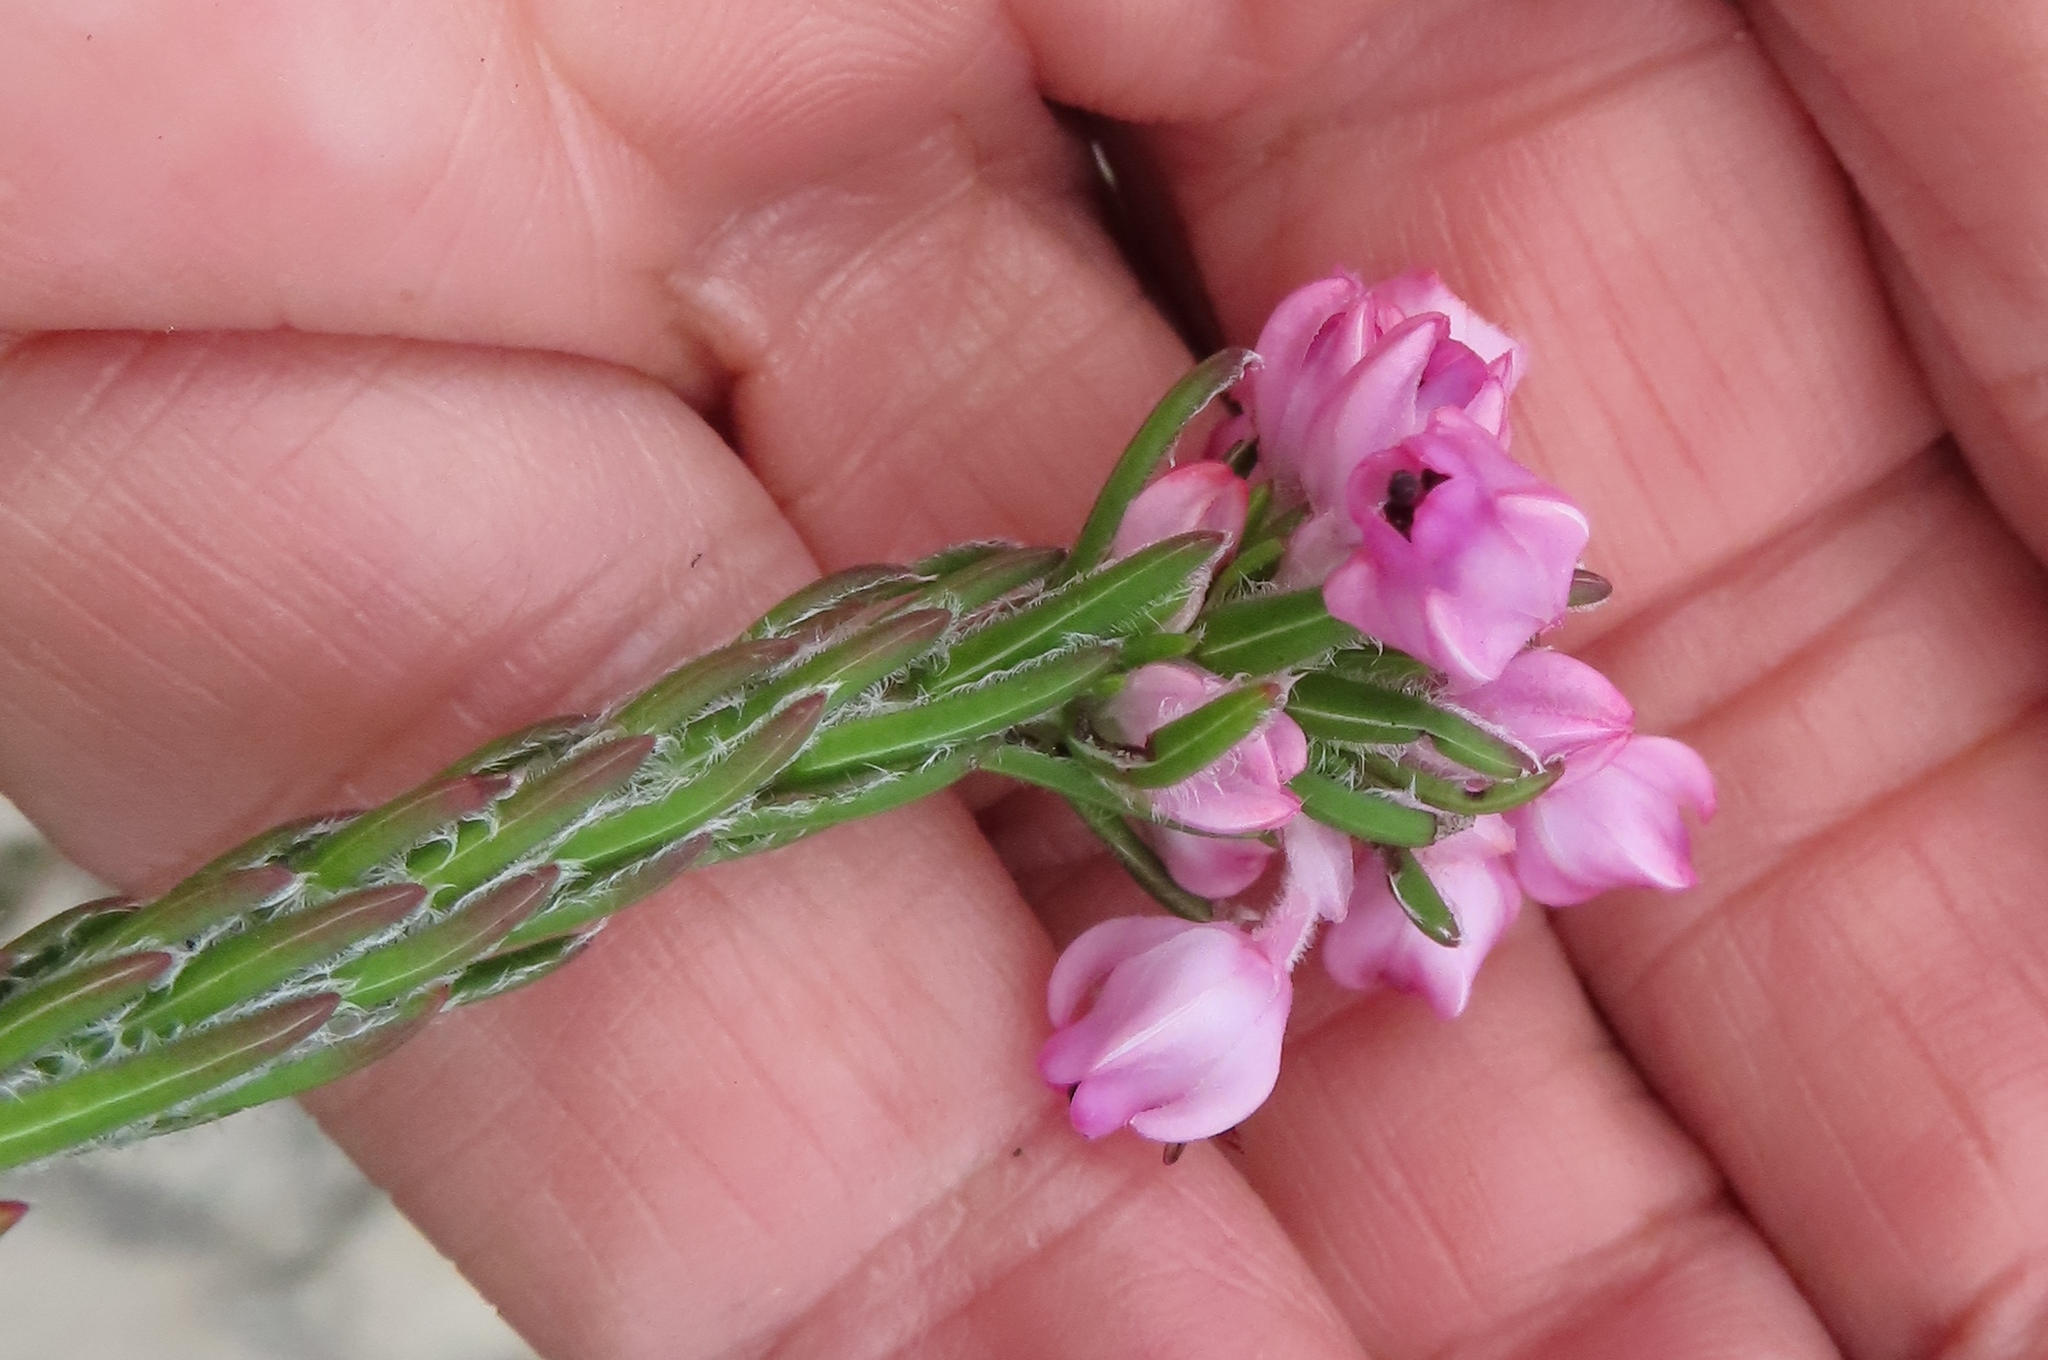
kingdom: Plantae
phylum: Tracheophyta
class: Magnoliopsida
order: Ericales
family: Ericaceae
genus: Erica
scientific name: Erica excavata
